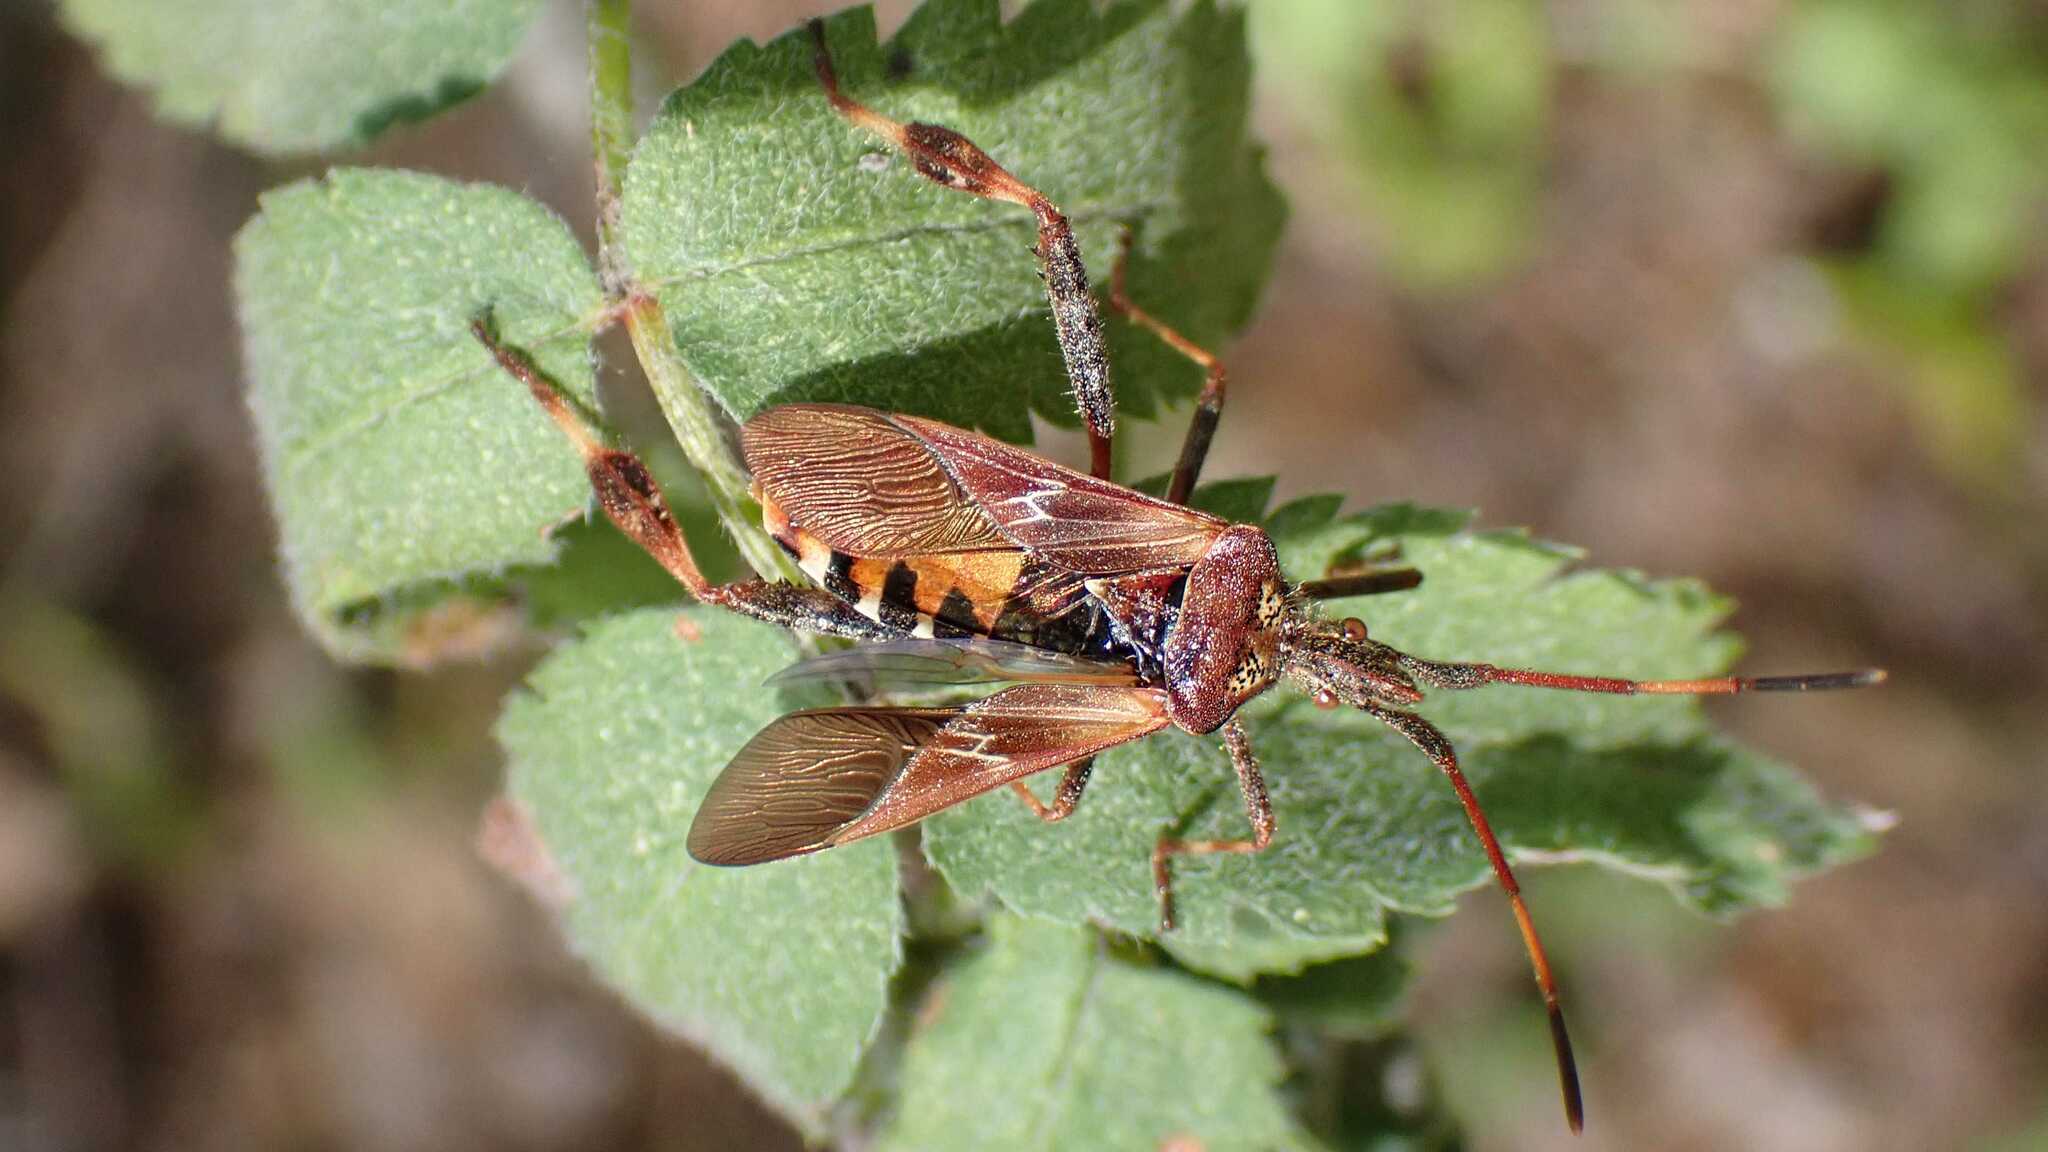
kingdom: Animalia
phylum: Arthropoda
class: Insecta
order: Hemiptera
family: Coreidae
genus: Leptoglossus
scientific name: Leptoglossus occidentalis
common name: Western conifer-seed bug
